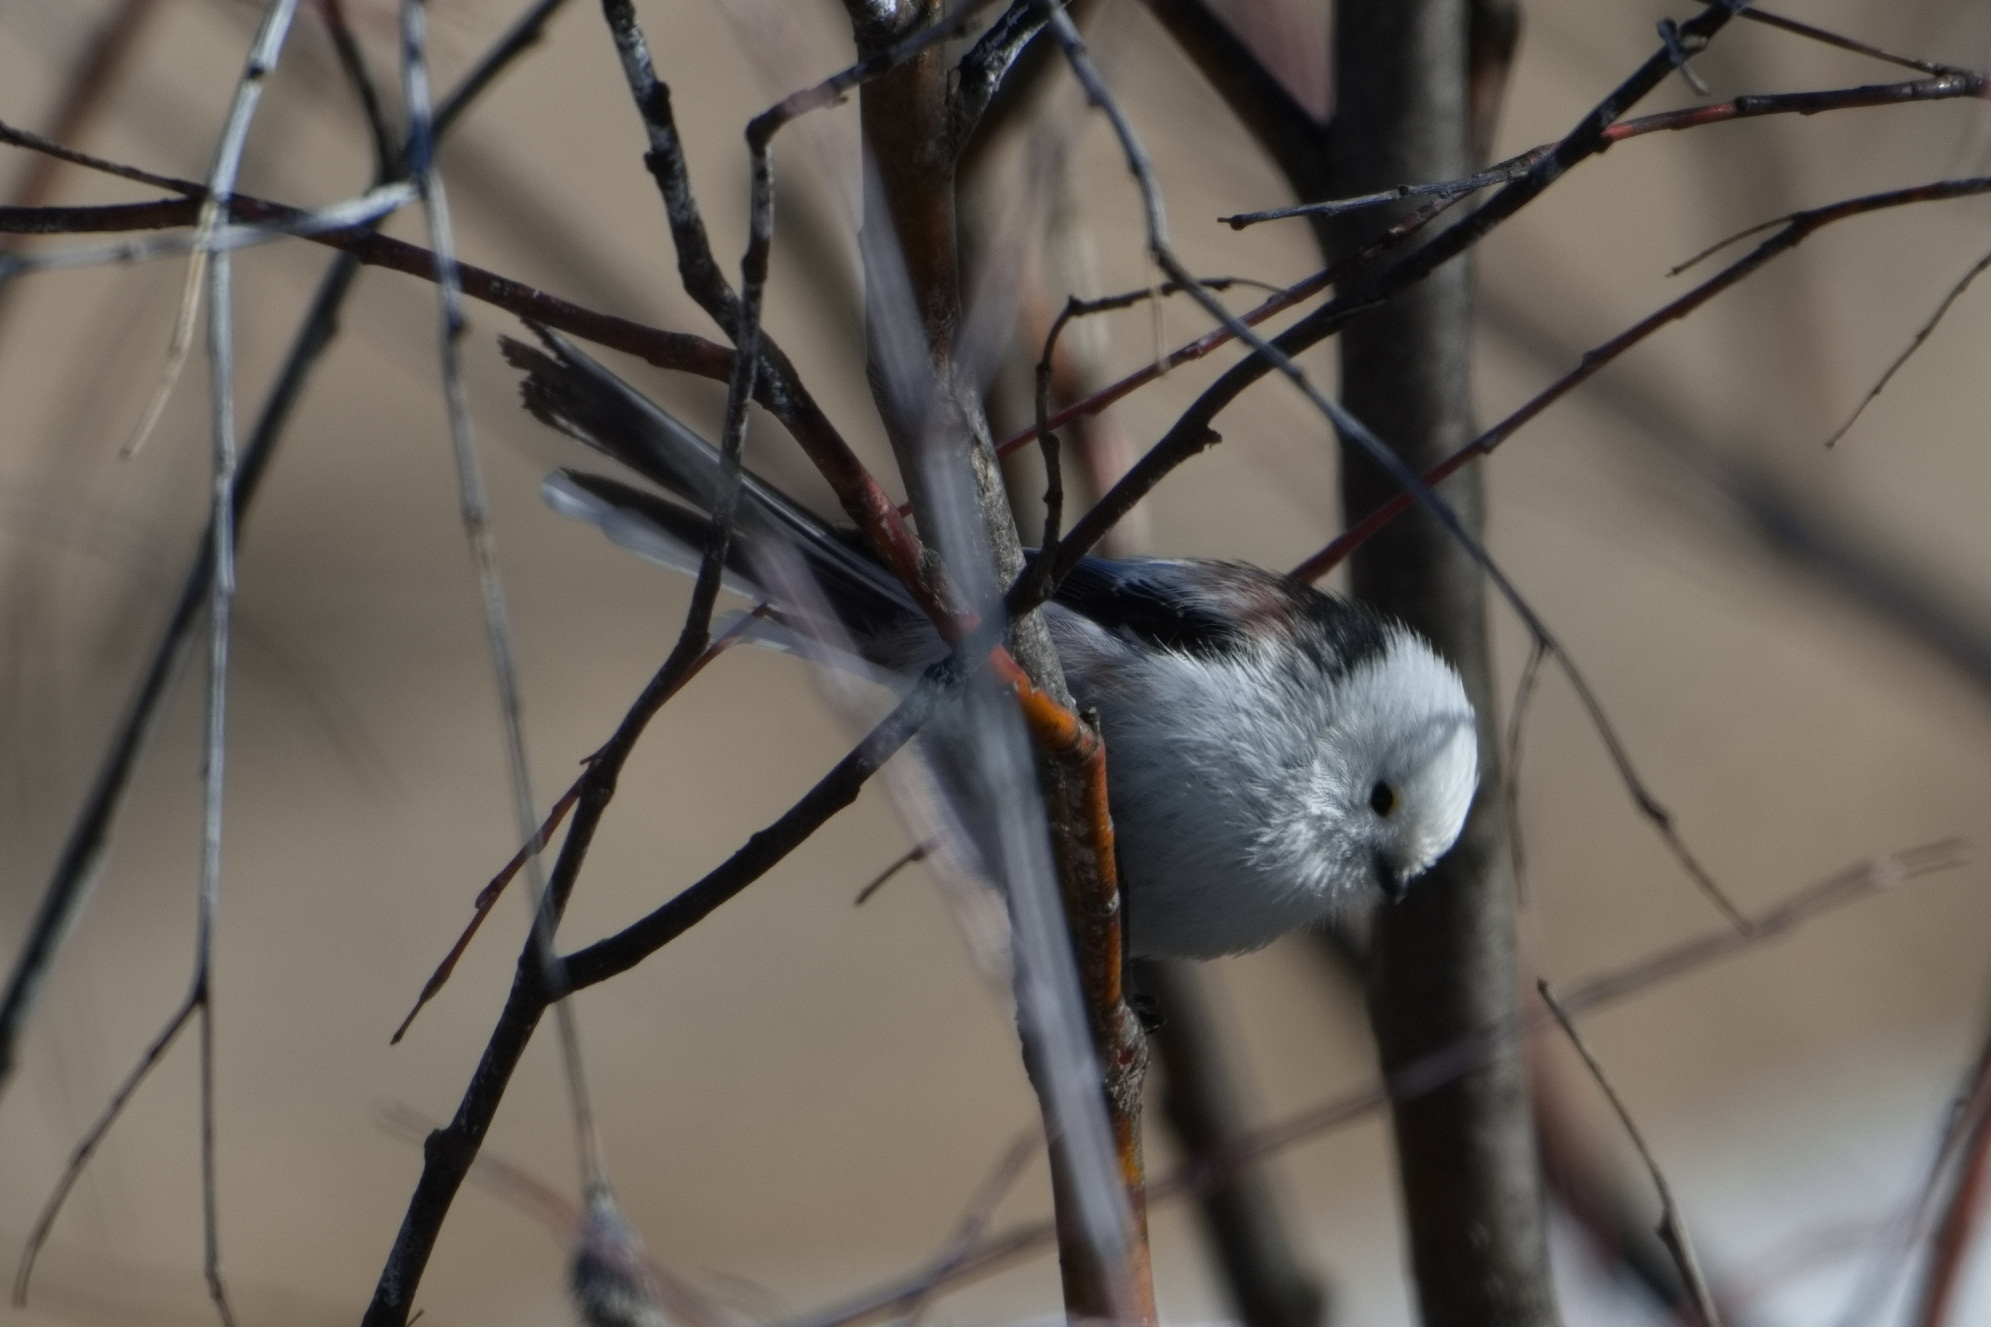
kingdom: Animalia
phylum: Chordata
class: Aves
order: Passeriformes
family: Aegithalidae
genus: Aegithalos
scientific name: Aegithalos caudatus
